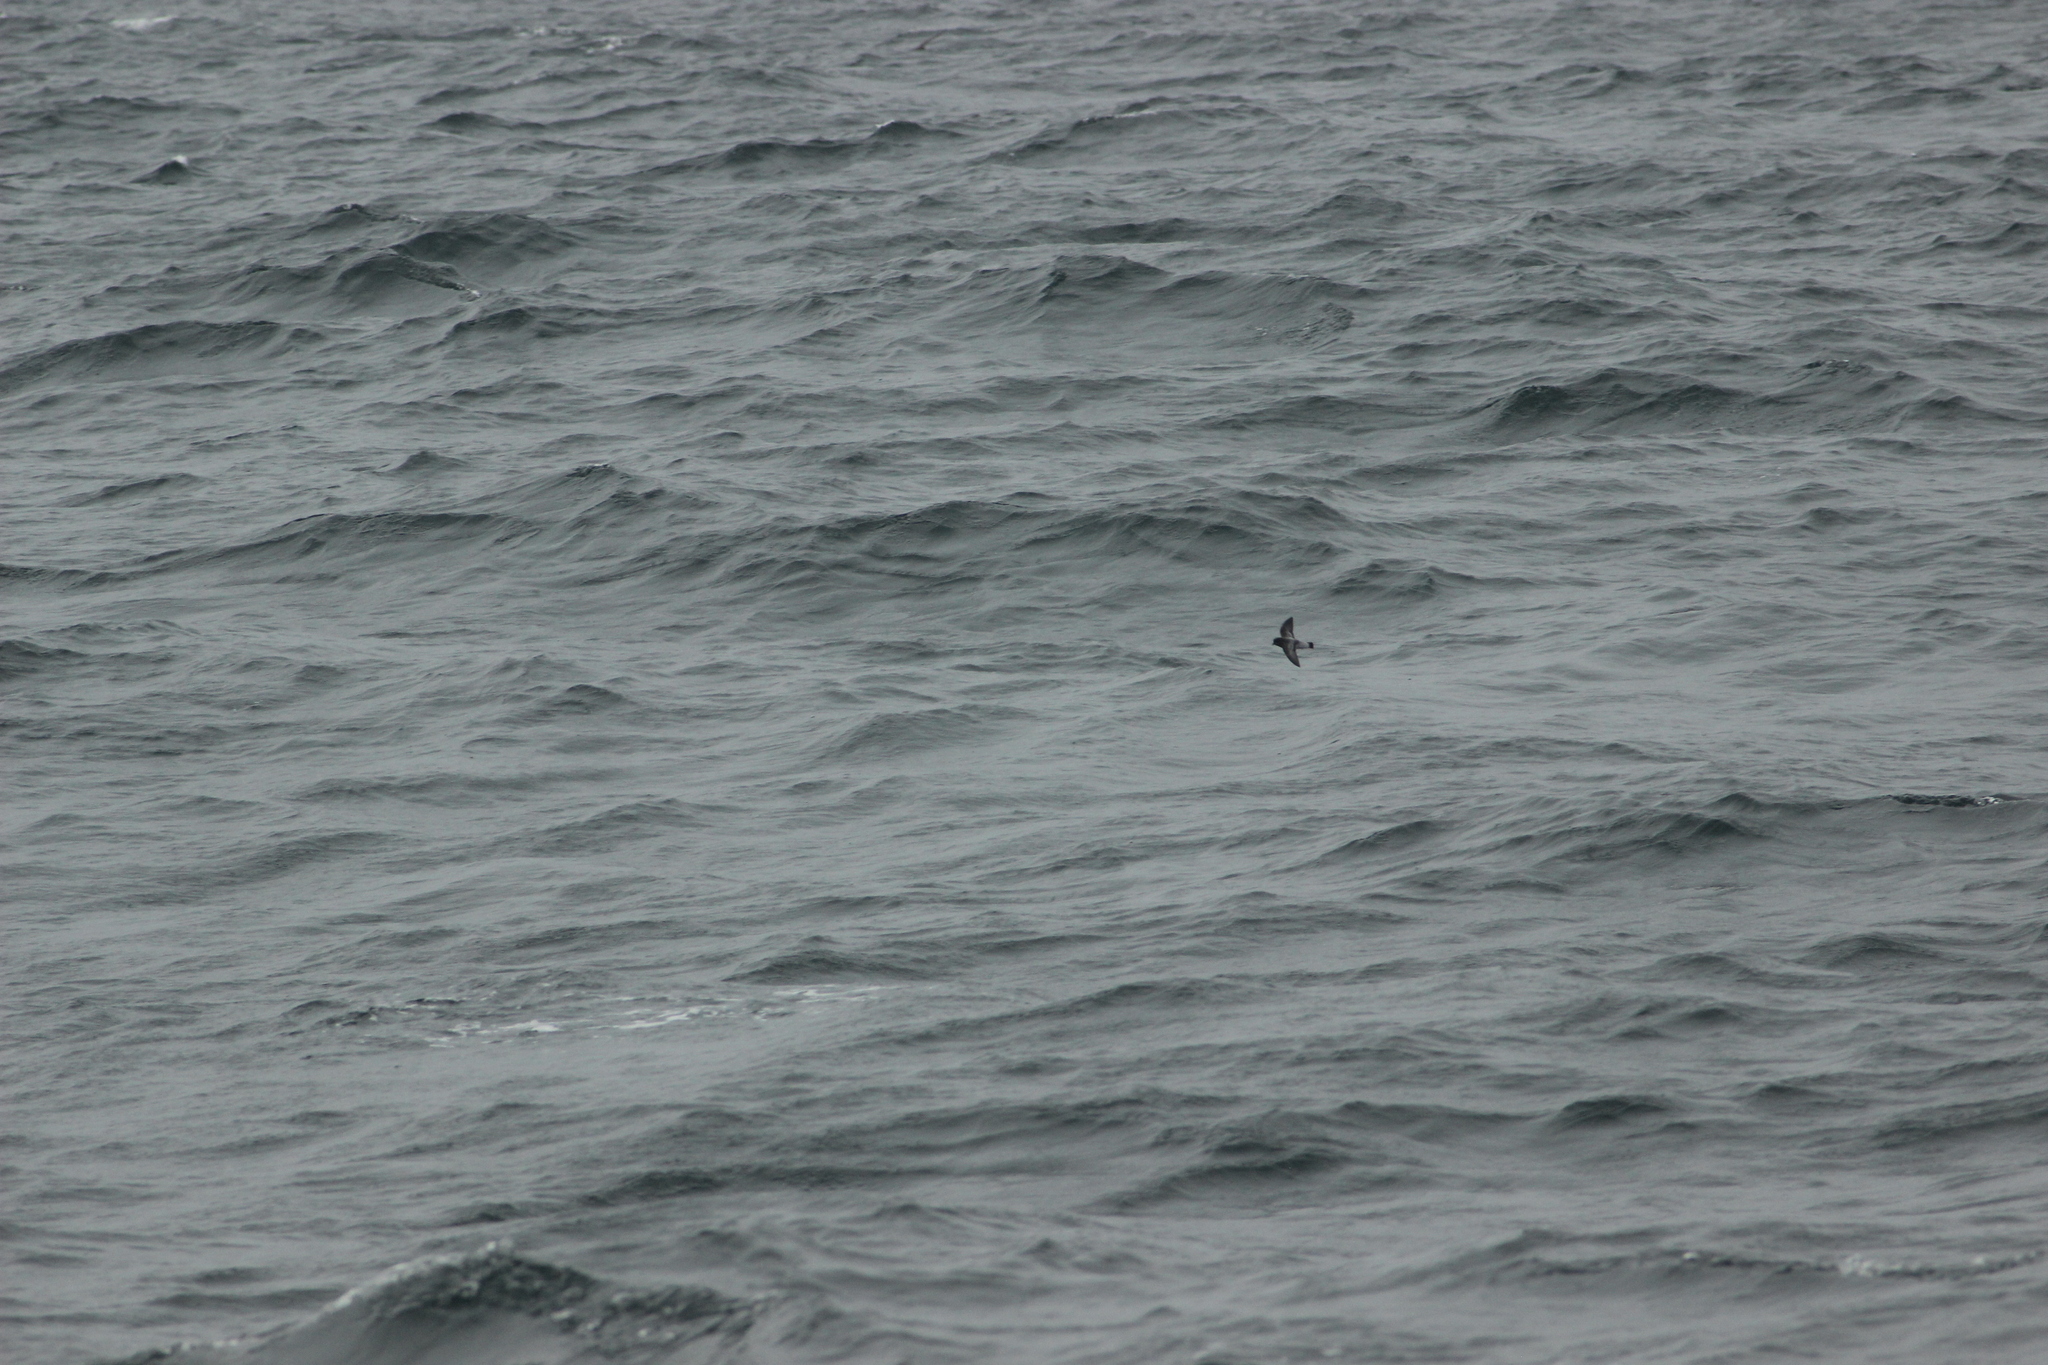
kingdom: Animalia
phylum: Chordata
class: Aves
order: Procellariiformes
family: Hydrobatidae
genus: Garrodia
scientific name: Garrodia nereis
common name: Grey-backed storm petrel
